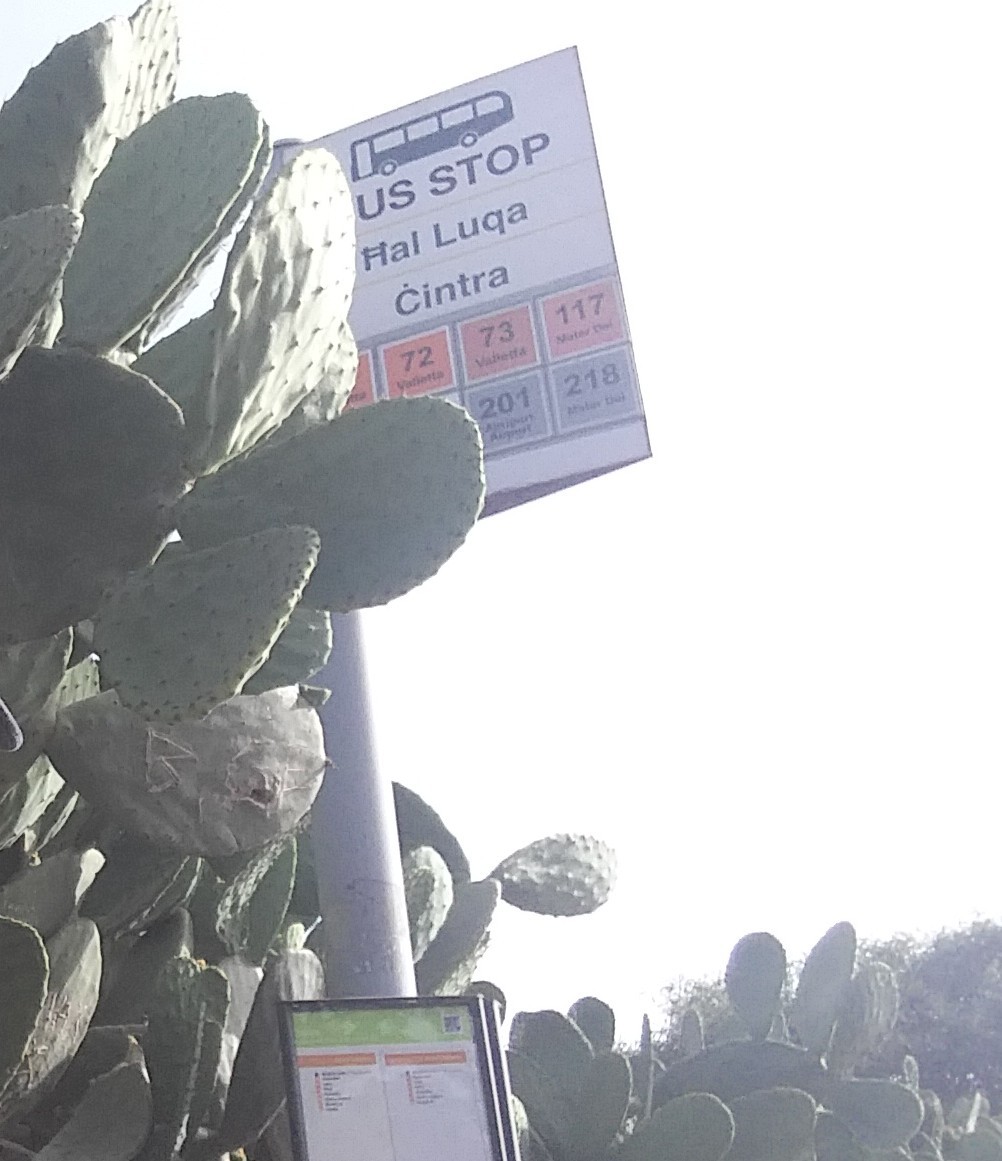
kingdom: Plantae
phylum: Tracheophyta
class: Magnoliopsida
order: Caryophyllales
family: Cactaceae
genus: Opuntia
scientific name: Opuntia ficus-indica
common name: Barbary fig
